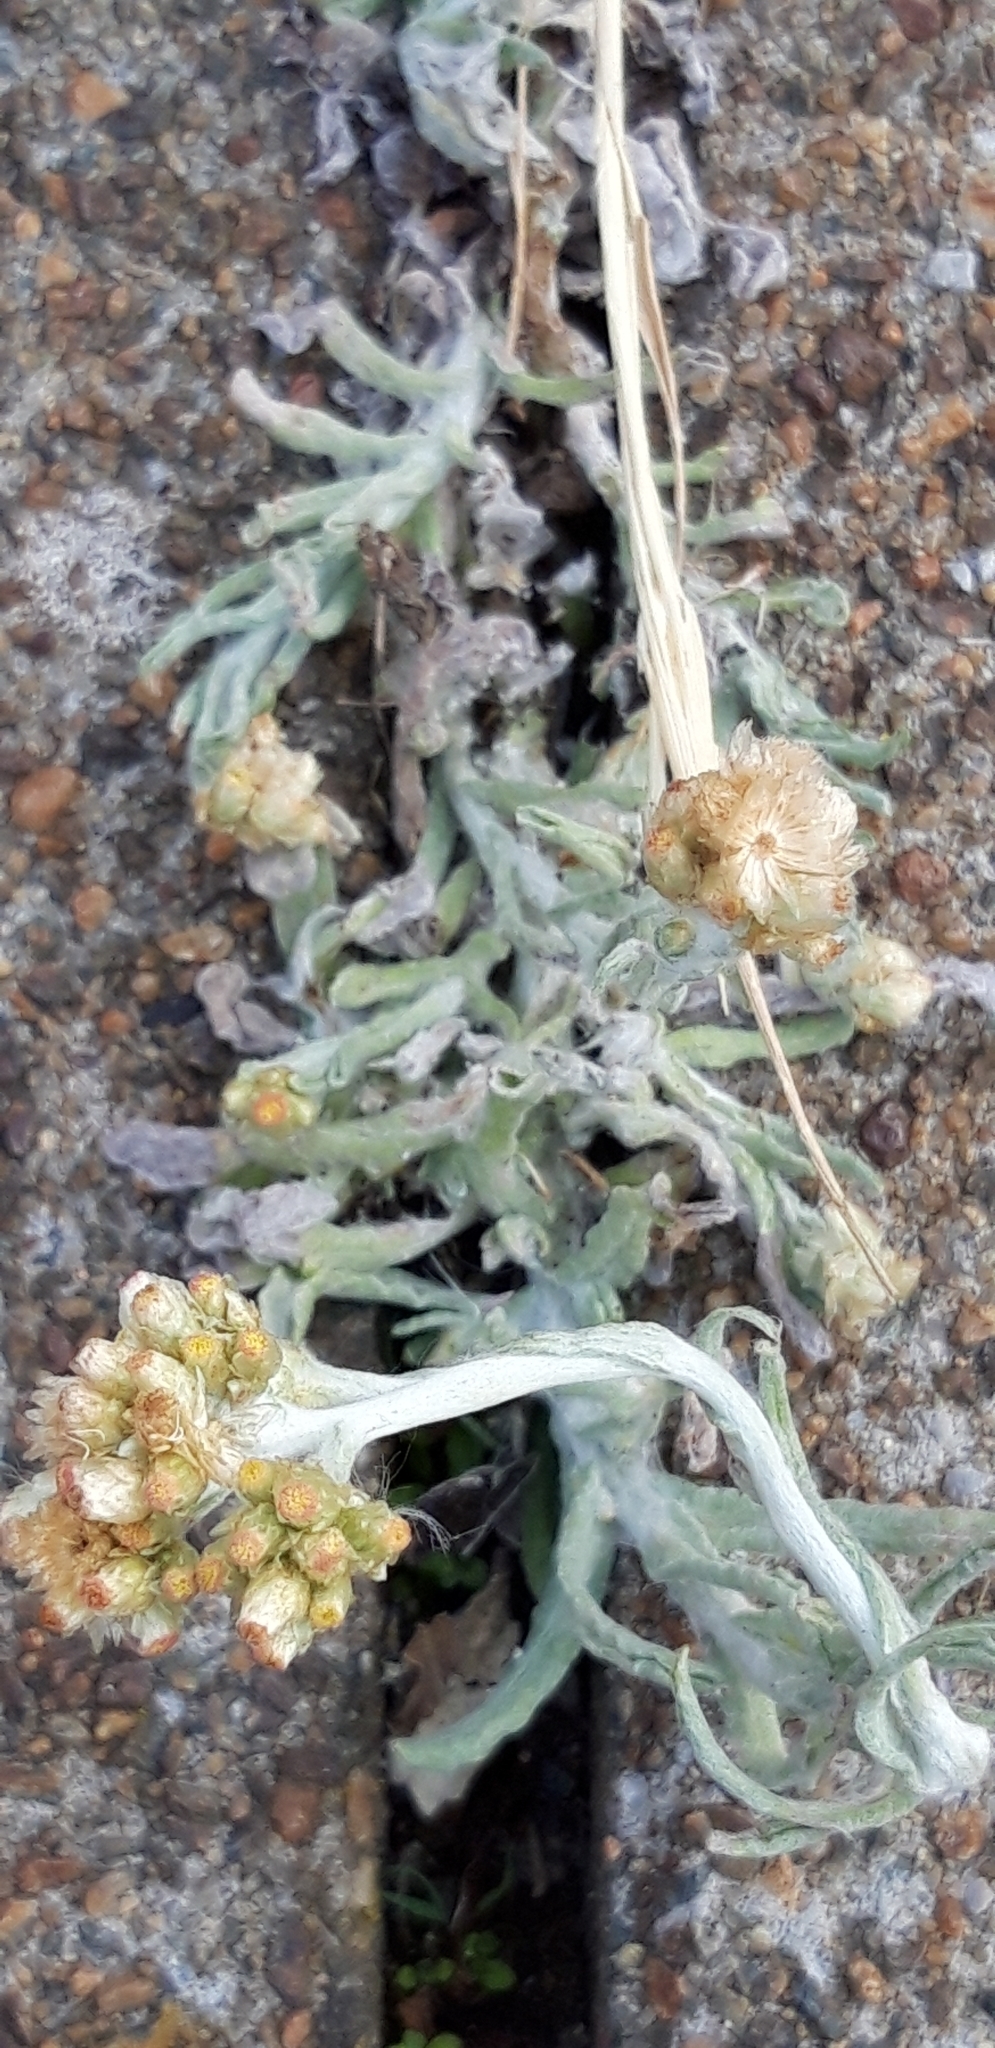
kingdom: Plantae
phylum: Tracheophyta
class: Magnoliopsida
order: Asterales
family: Asteraceae
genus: Helichrysum
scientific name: Helichrysum luteoalbum
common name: Daisy
